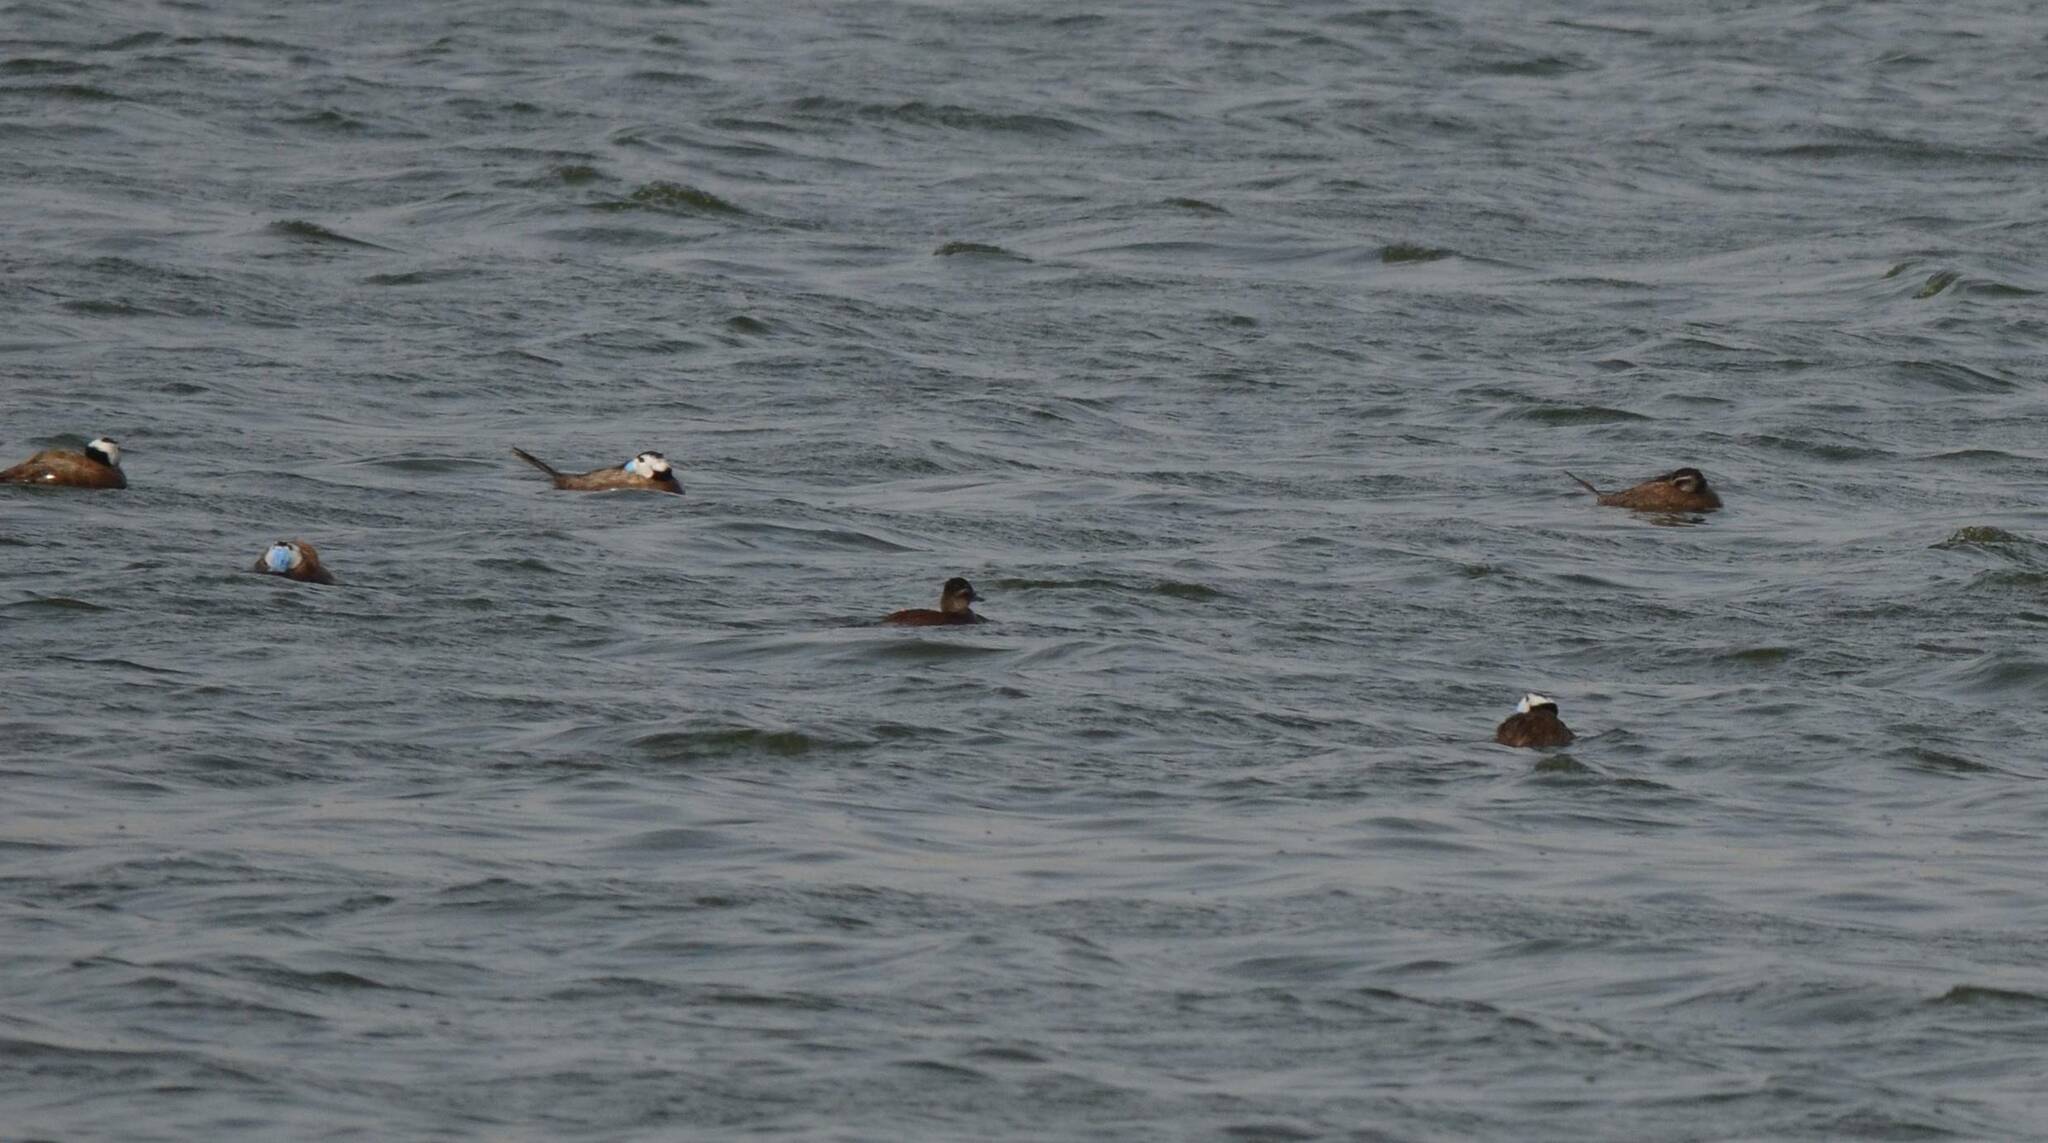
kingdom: Animalia
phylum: Chordata
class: Aves
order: Anseriformes
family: Anatidae
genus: Oxyura
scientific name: Oxyura leucocephala
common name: White-headed duck
